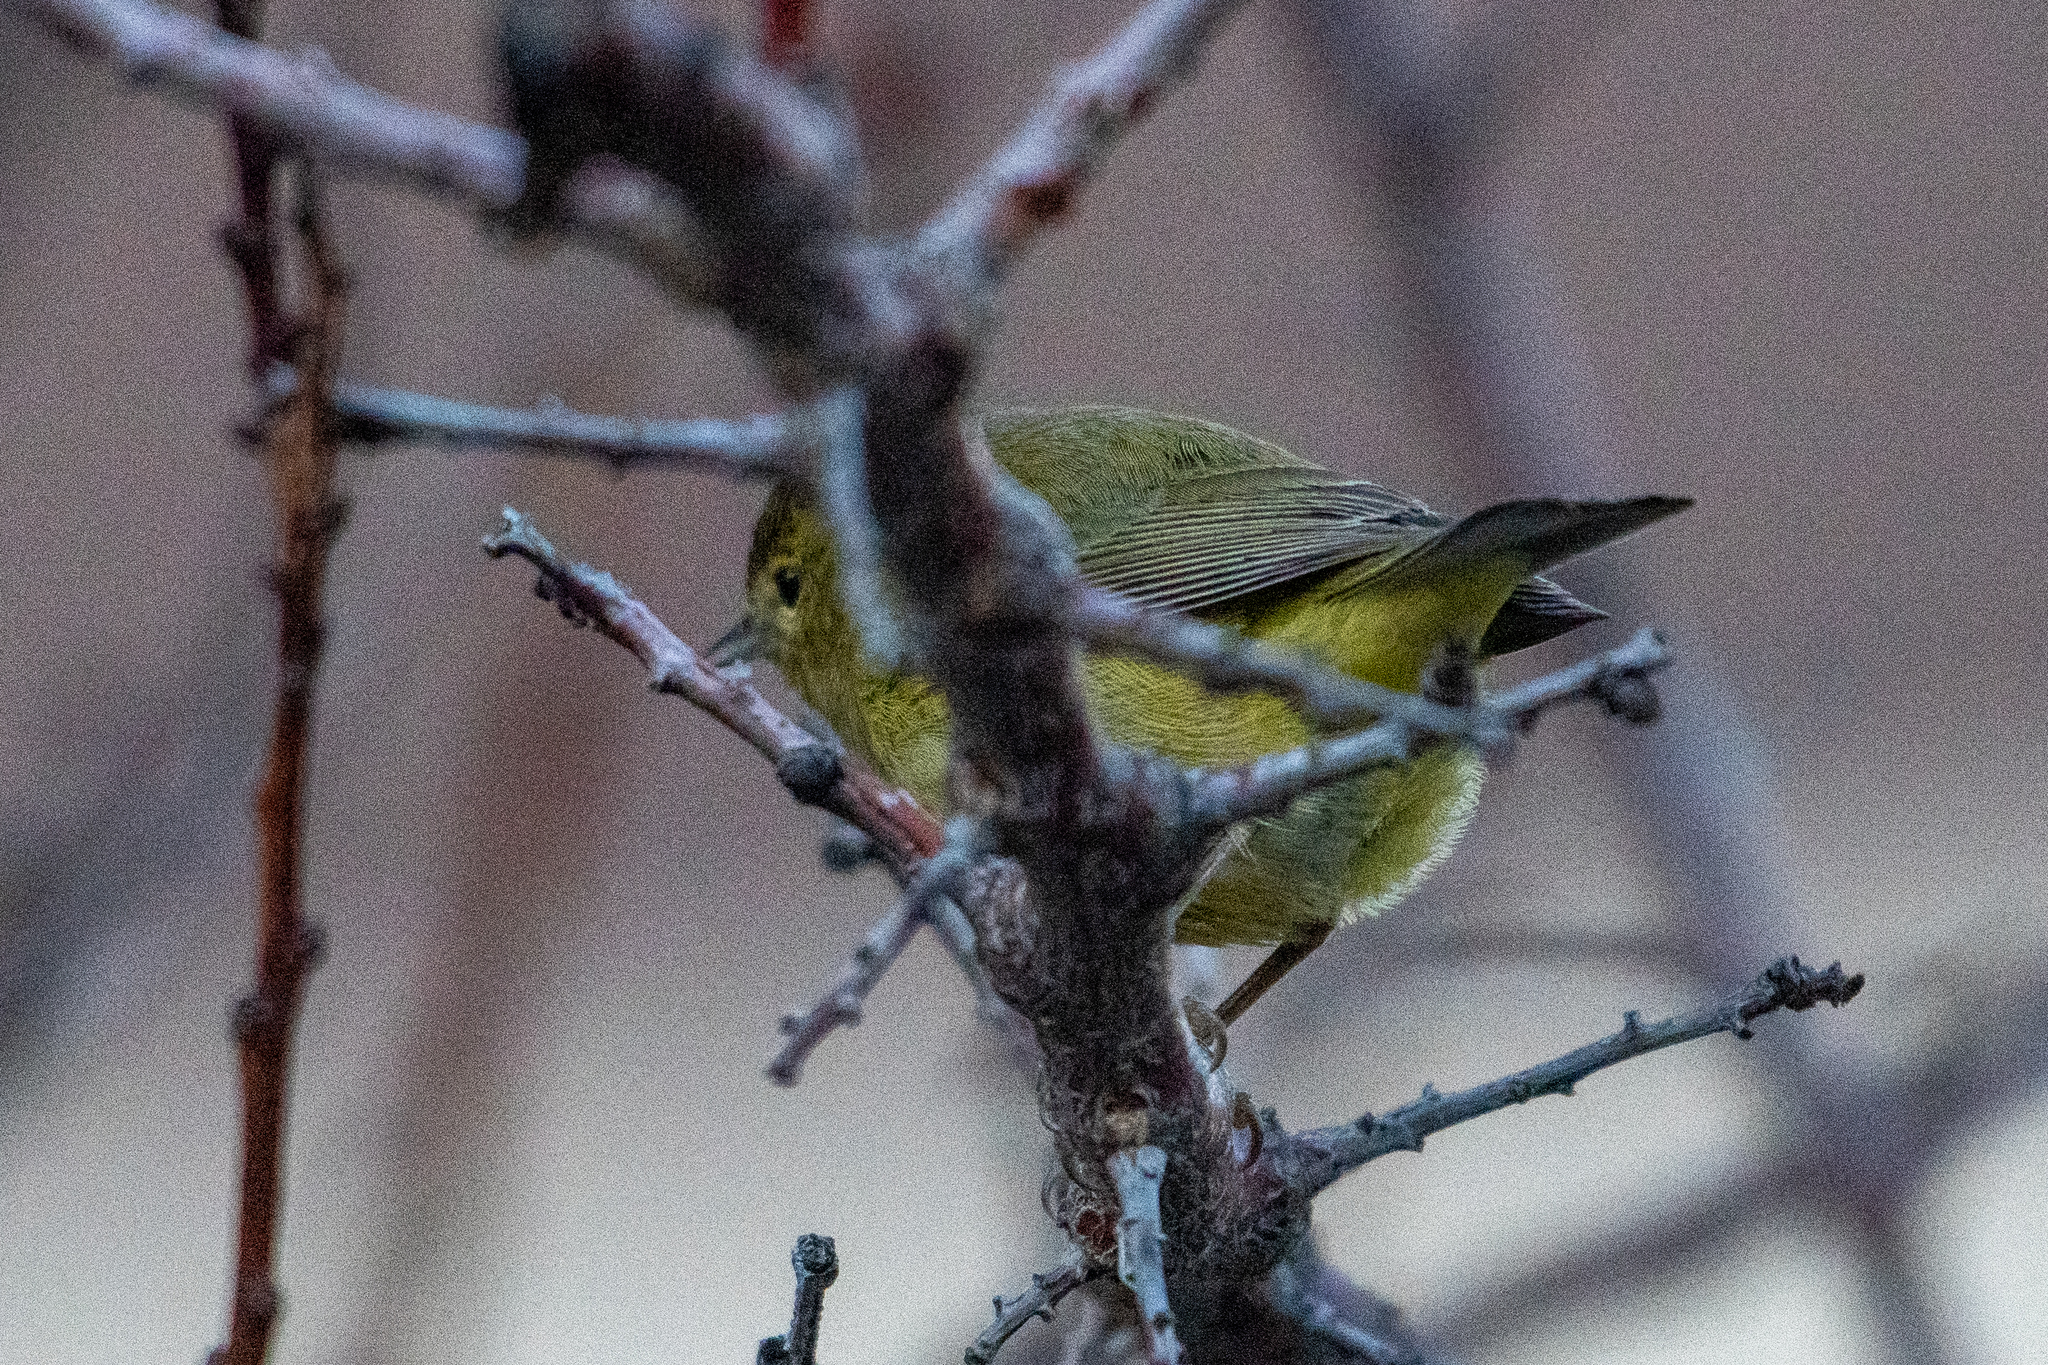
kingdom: Animalia
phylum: Chordata
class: Aves
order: Passeriformes
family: Parulidae
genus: Leiothlypis
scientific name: Leiothlypis celata
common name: Orange-crowned warbler
